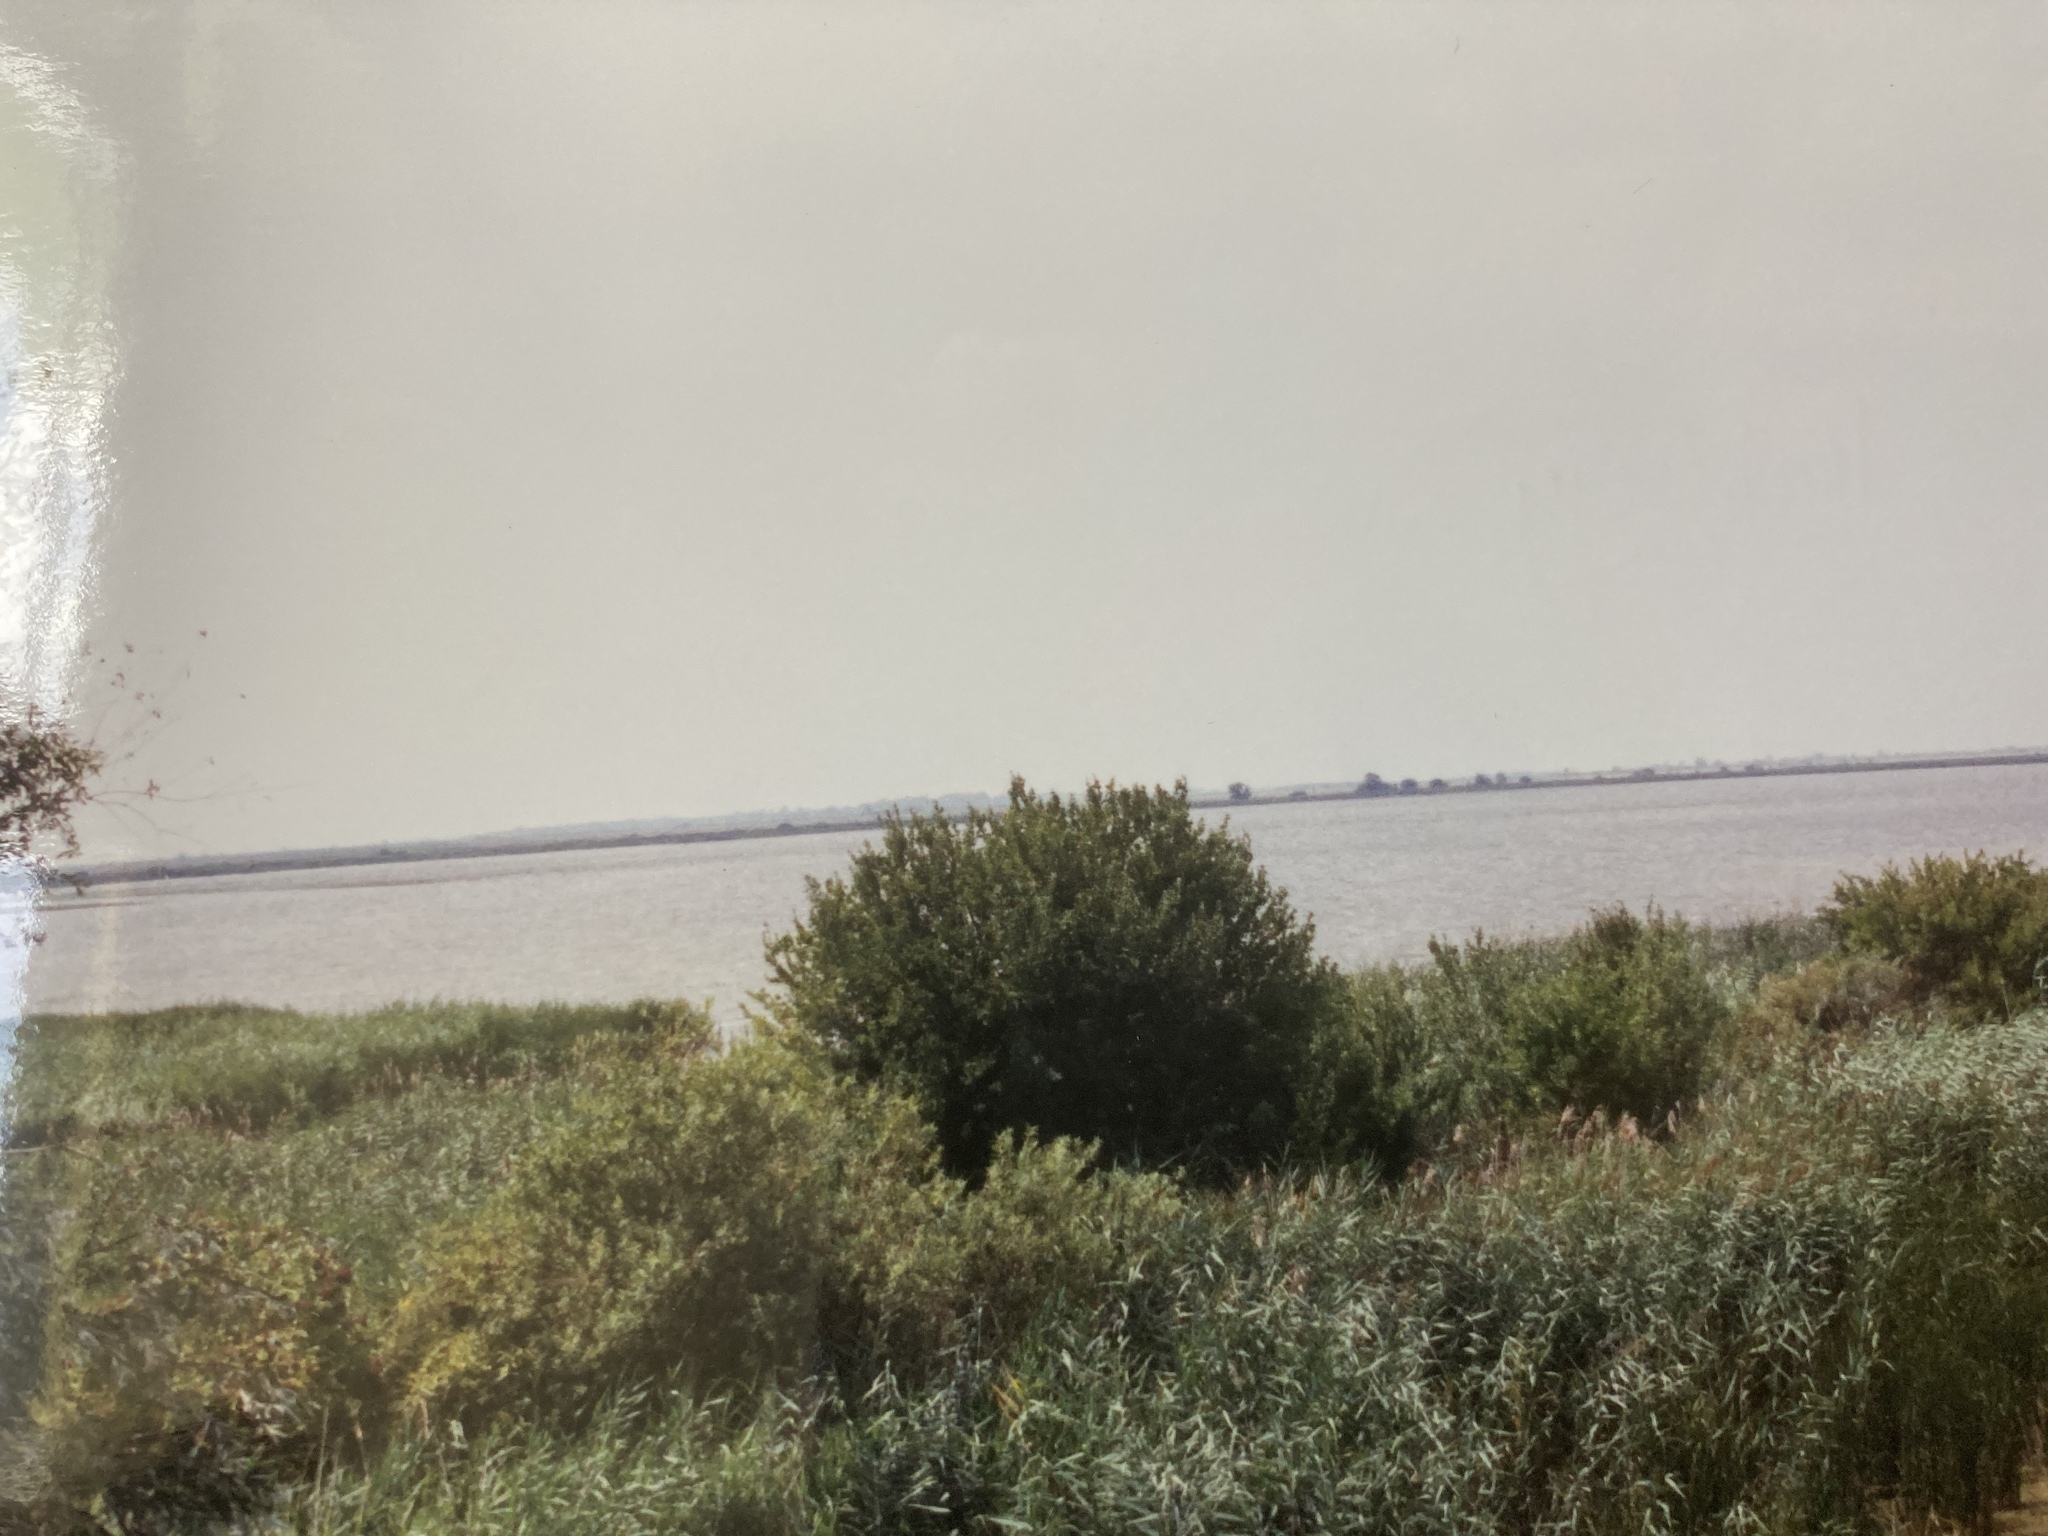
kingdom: Plantae
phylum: Tracheophyta
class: Liliopsida
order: Poales
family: Poaceae
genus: Phragmites
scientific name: Phragmites australis
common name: Common reed
